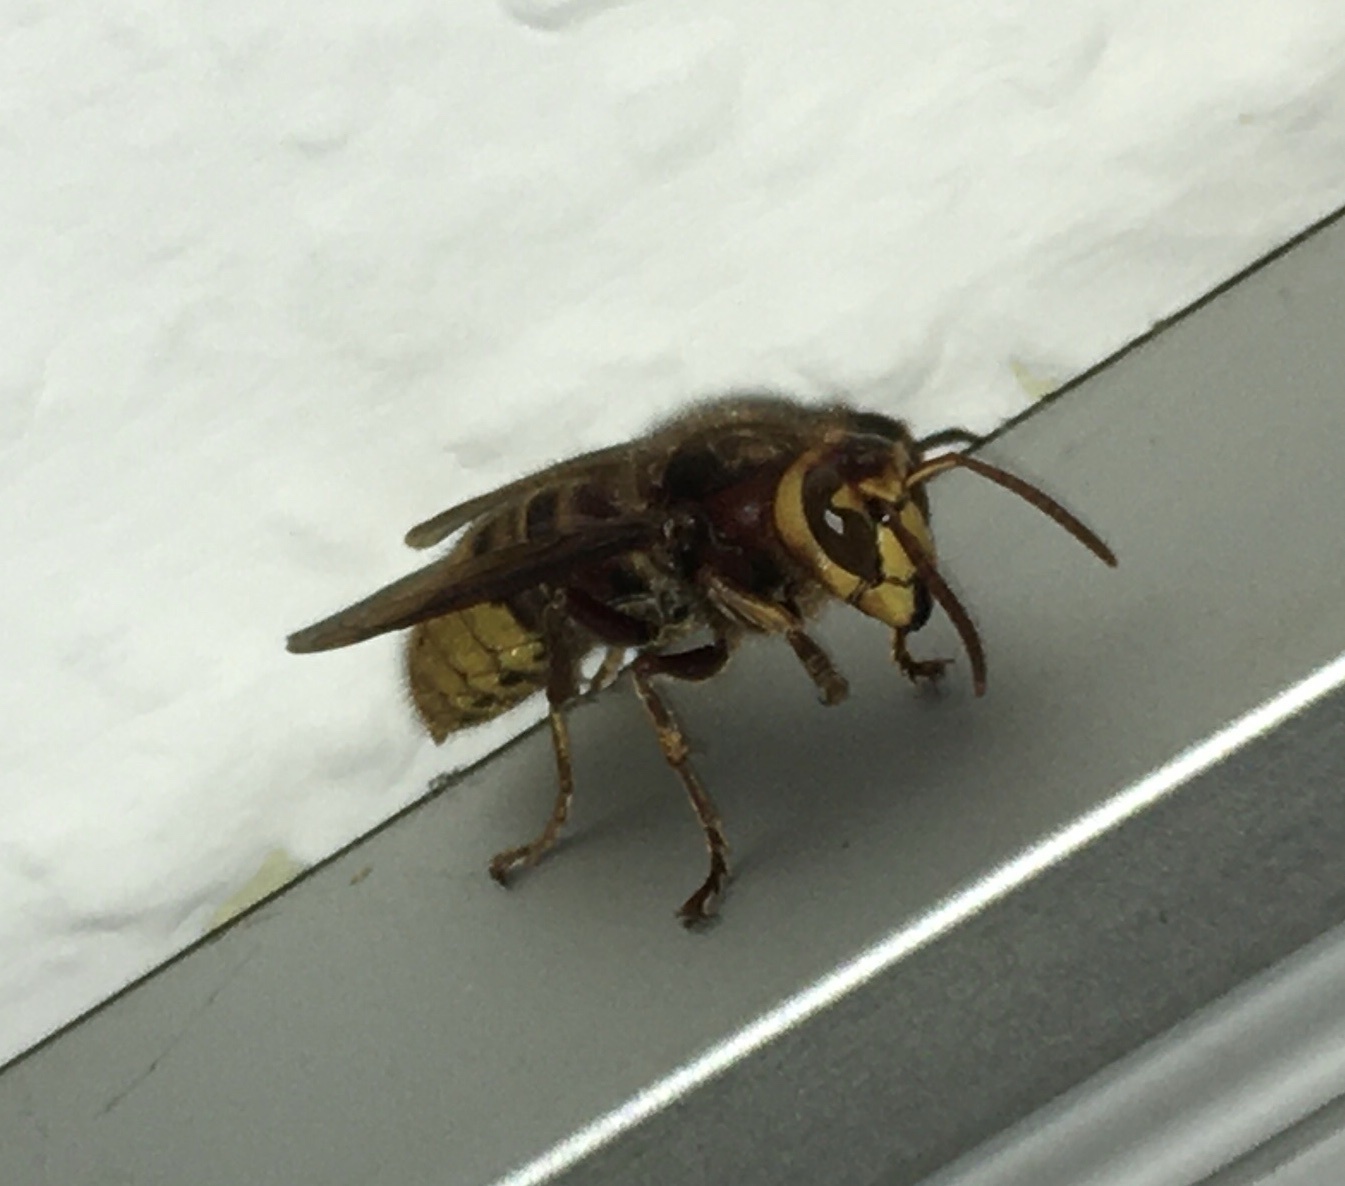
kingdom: Animalia
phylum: Arthropoda
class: Insecta
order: Hymenoptera
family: Vespidae
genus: Vespa
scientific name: Vespa crabro
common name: Hornet
